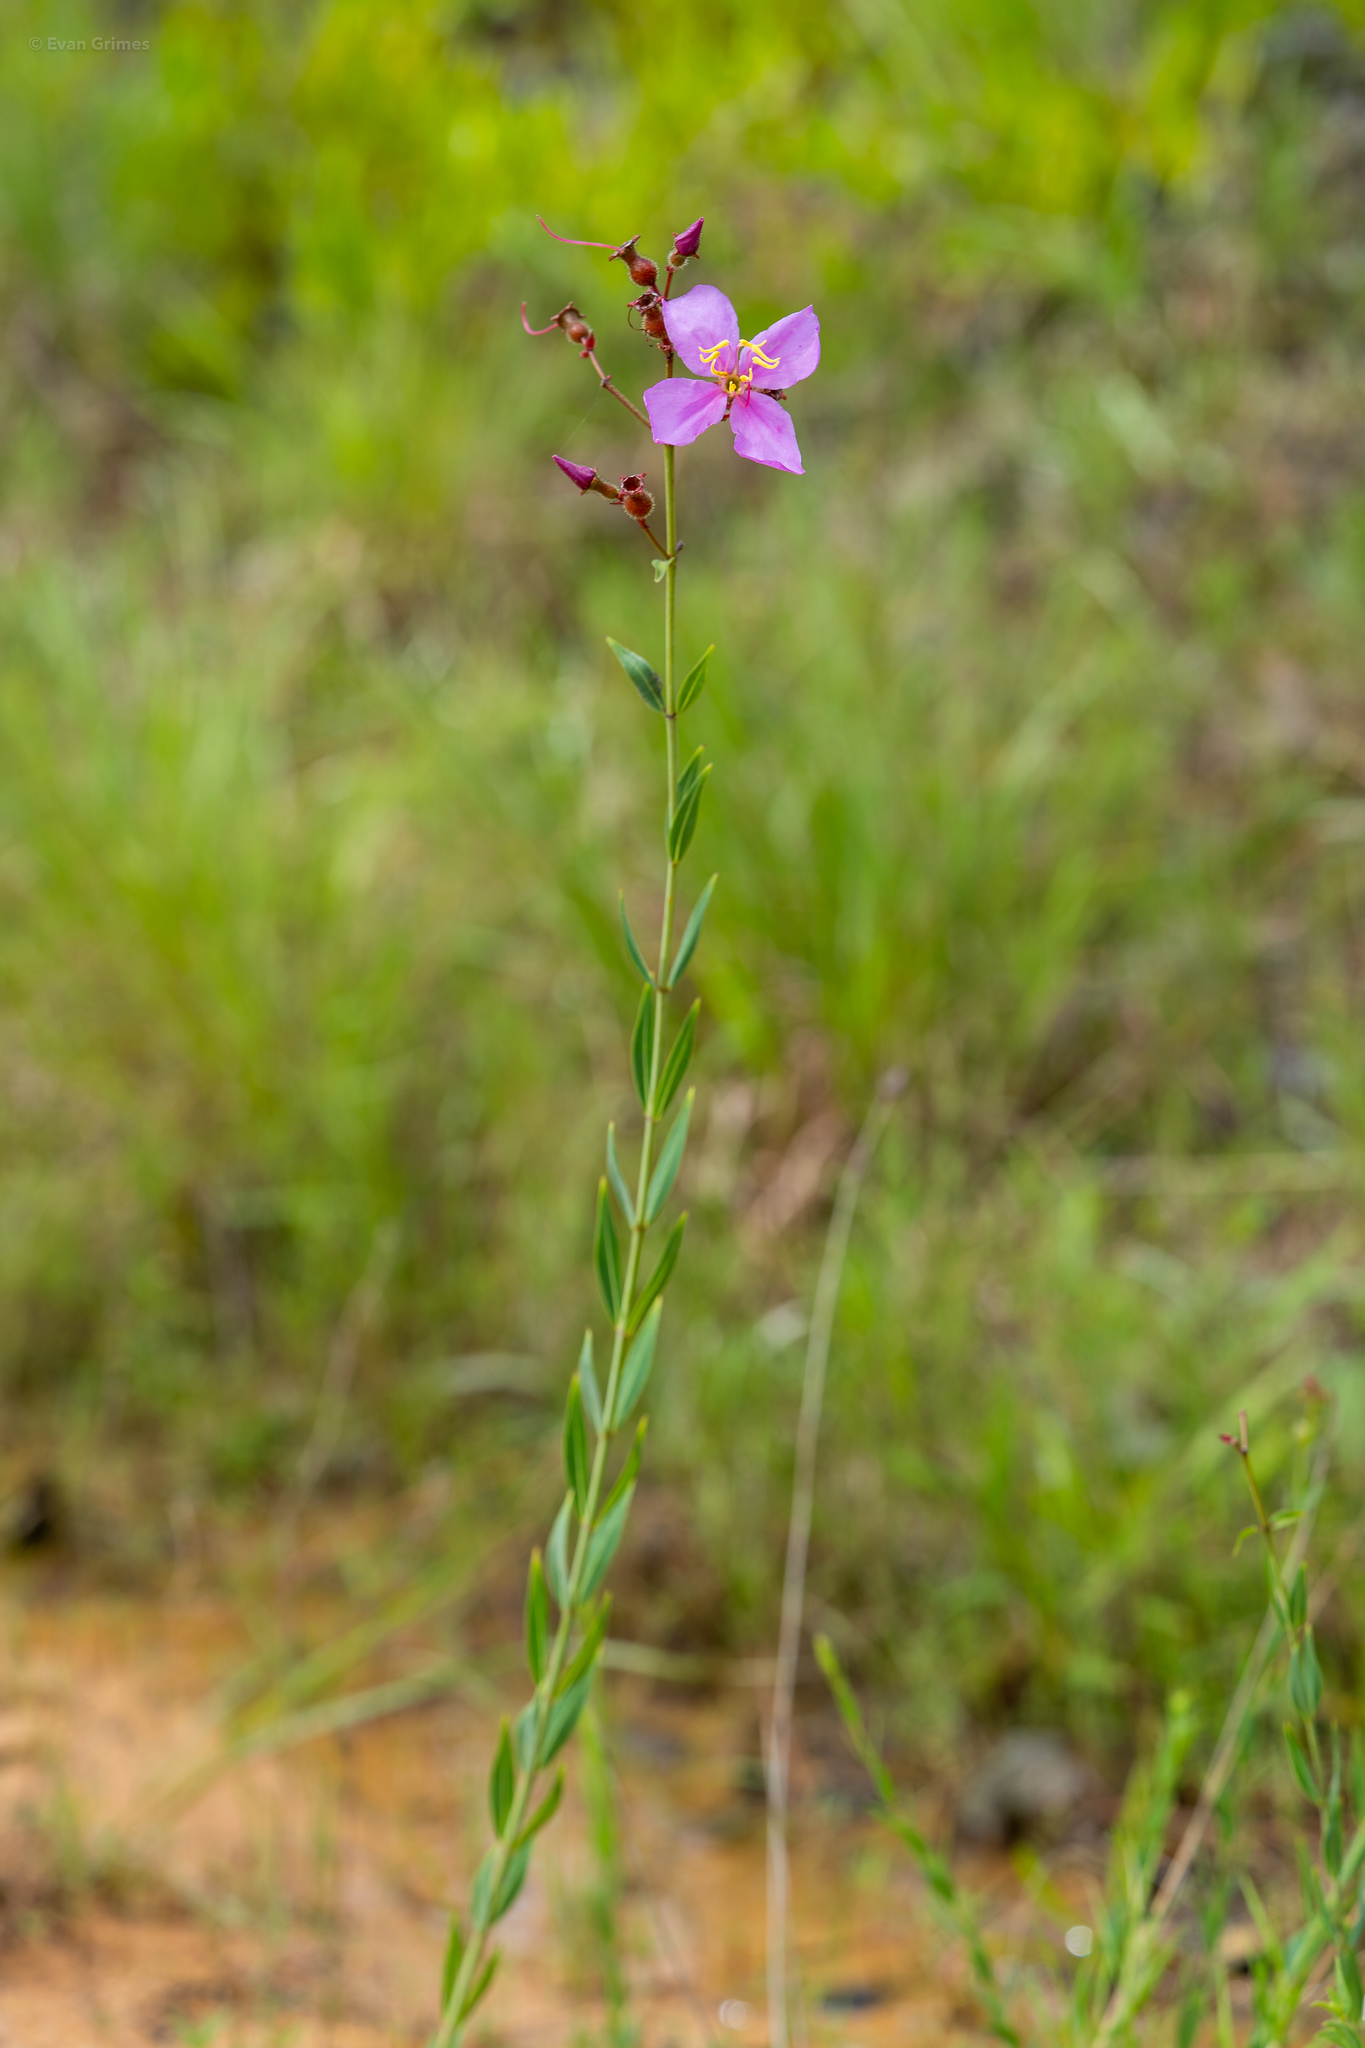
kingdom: Plantae
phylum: Tracheophyta
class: Magnoliopsida
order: Myrtales
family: Melastomataceae
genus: Rhexia
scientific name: Rhexia alifanus
